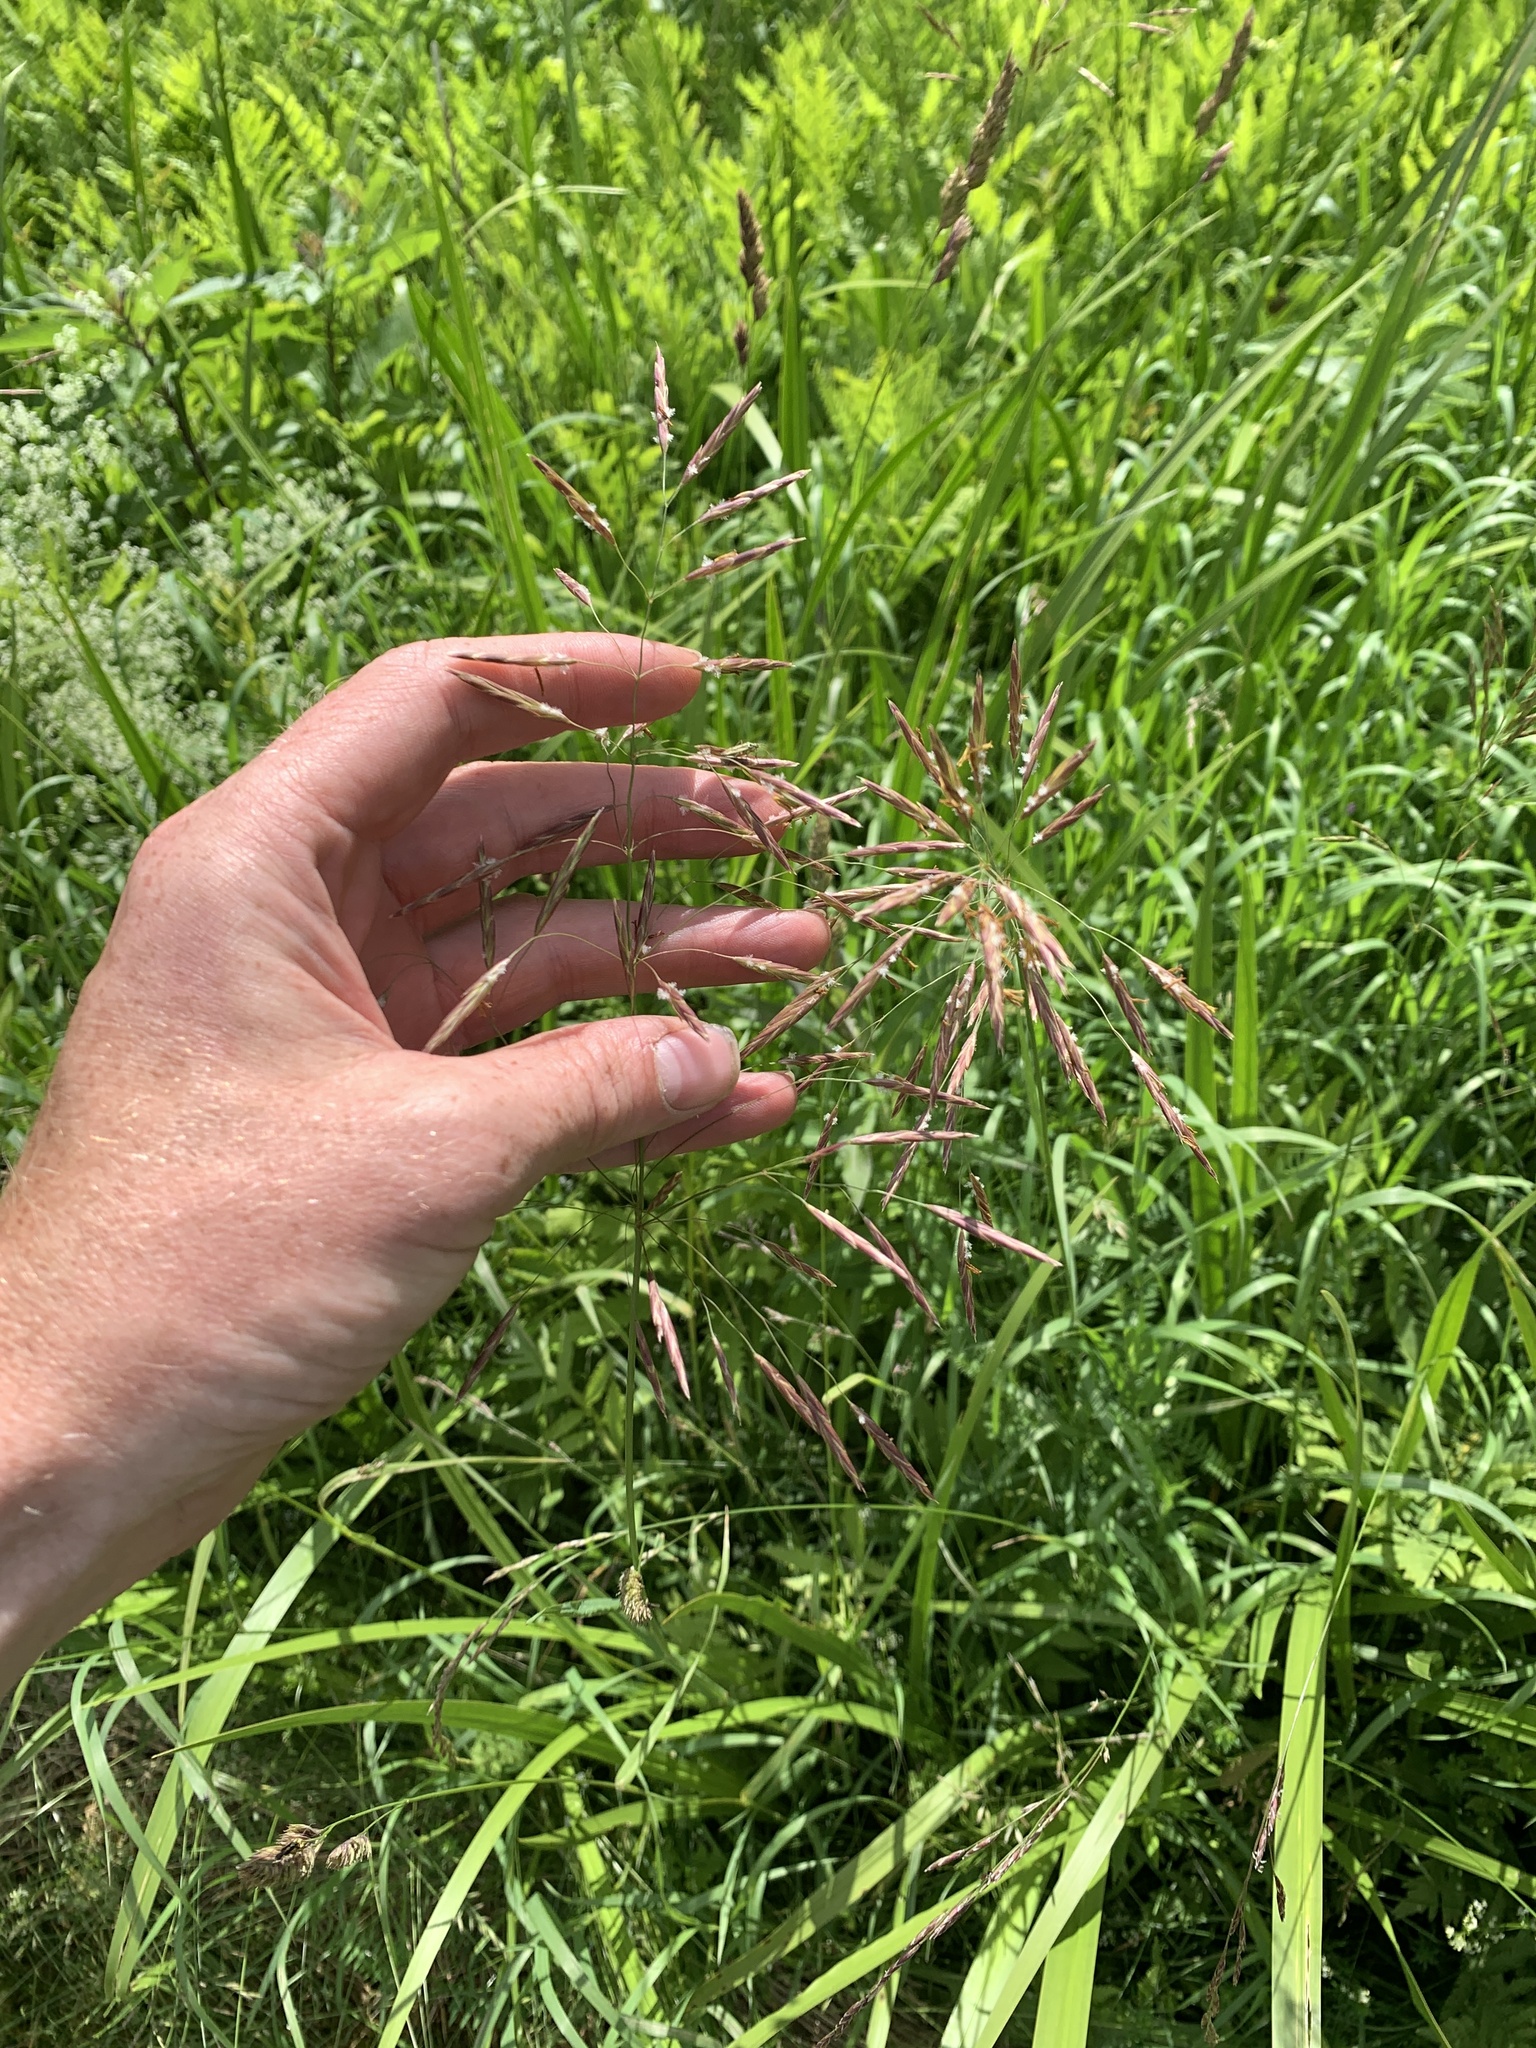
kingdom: Plantae
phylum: Tracheophyta
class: Liliopsida
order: Poales
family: Poaceae
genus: Bromus
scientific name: Bromus inermis
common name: Smooth brome
